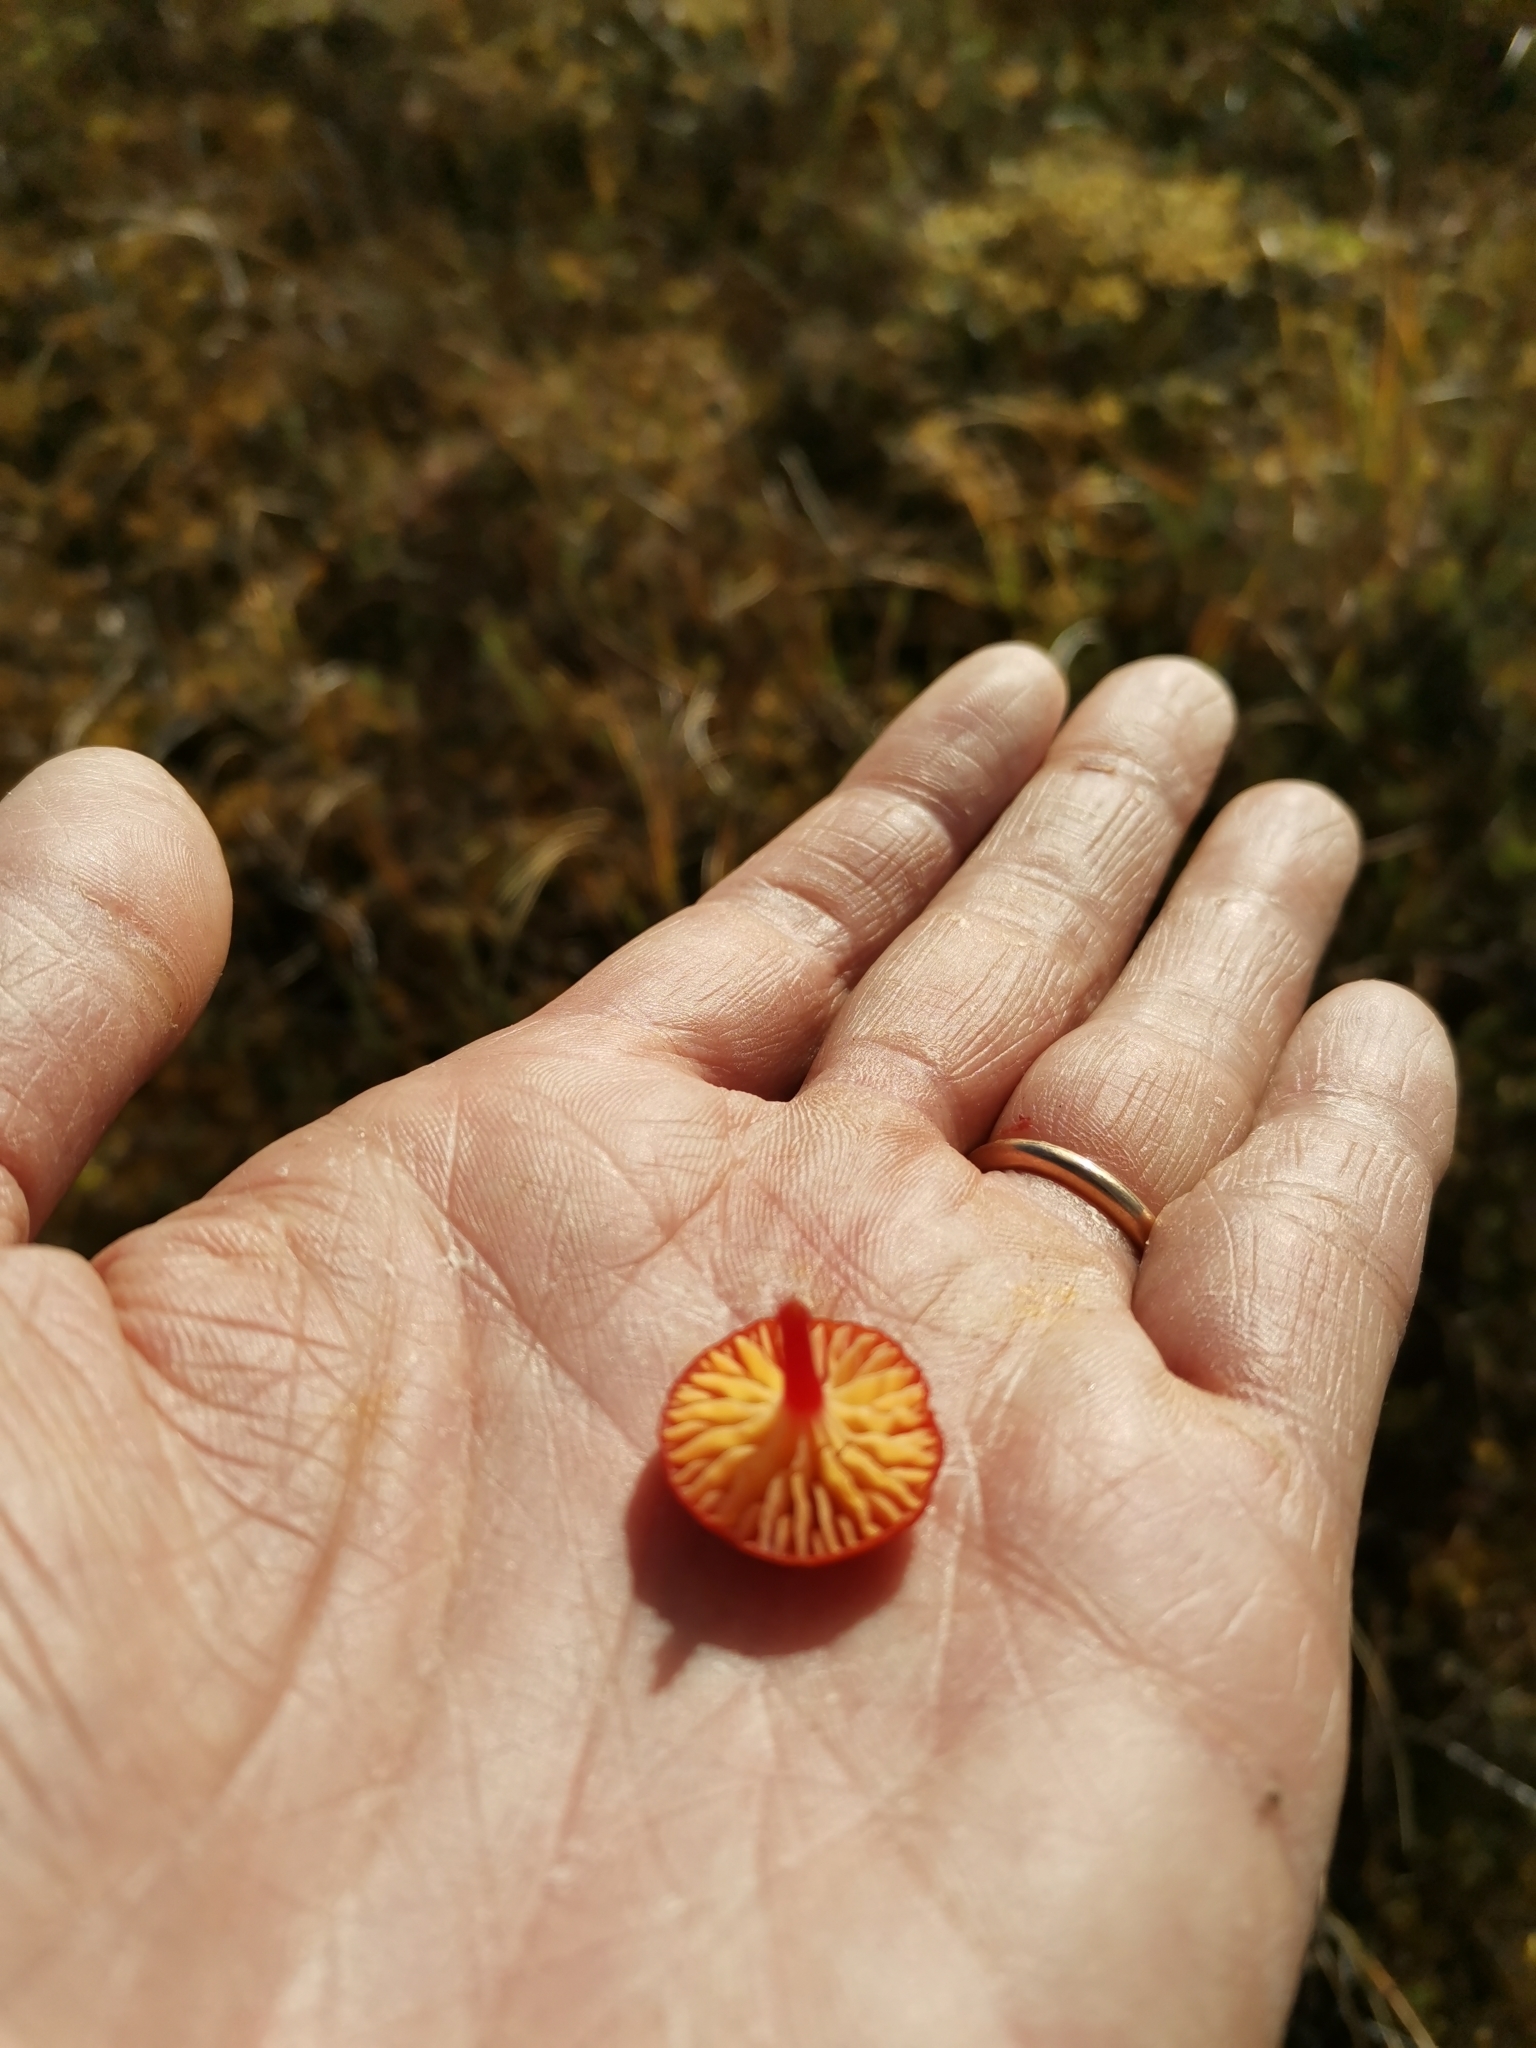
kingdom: Fungi
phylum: Basidiomycota
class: Agaricomycetes
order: Agaricales
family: Hygrophoraceae
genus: Hygrocybe
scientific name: Hygrocybe coccinea
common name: Scarlet hood
